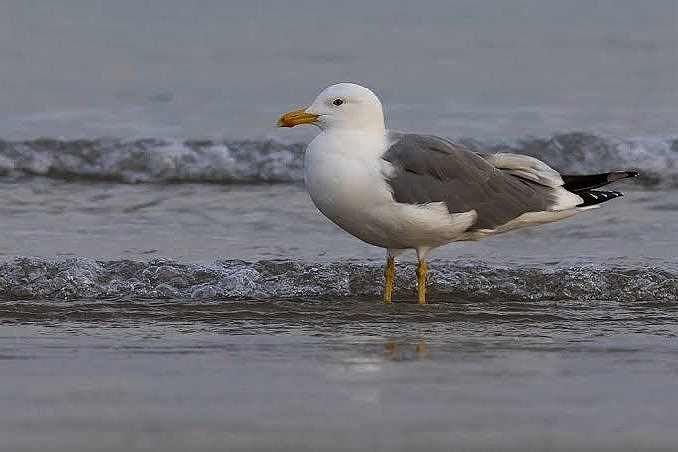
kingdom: Animalia
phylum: Chordata
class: Aves
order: Charadriiformes
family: Laridae
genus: Larus
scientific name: Larus fuscus
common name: Lesser black-backed gull
